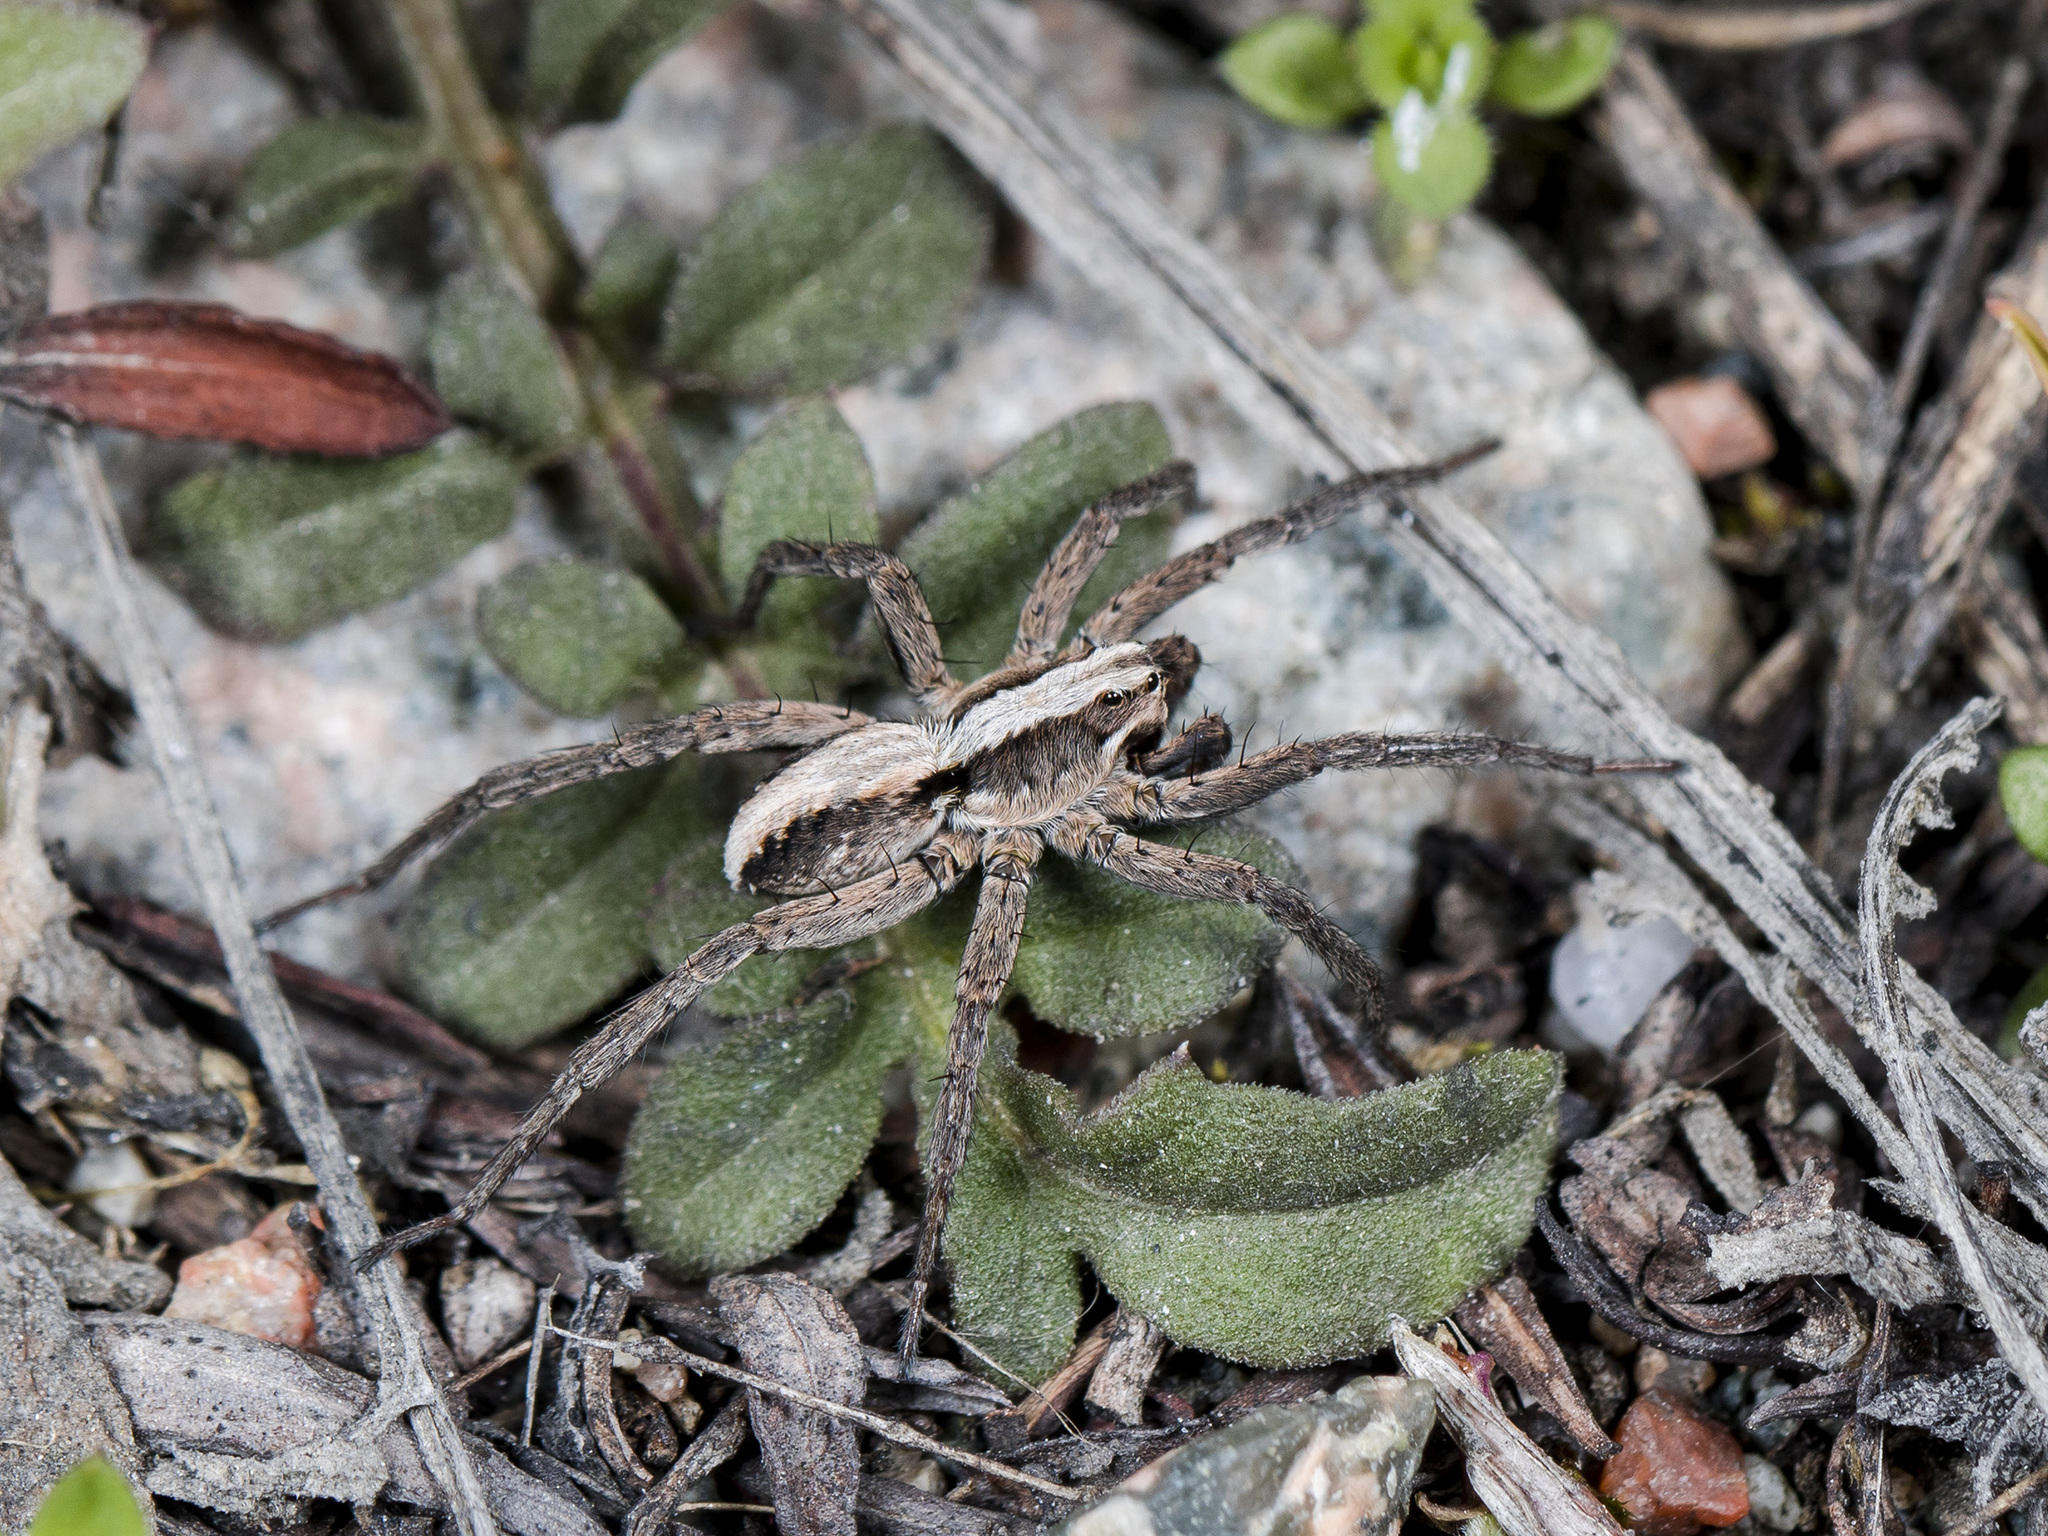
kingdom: Animalia
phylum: Arthropoda
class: Arachnida
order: Araneae
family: Lycosidae
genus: Alopecosa
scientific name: Alopecosa cursor
